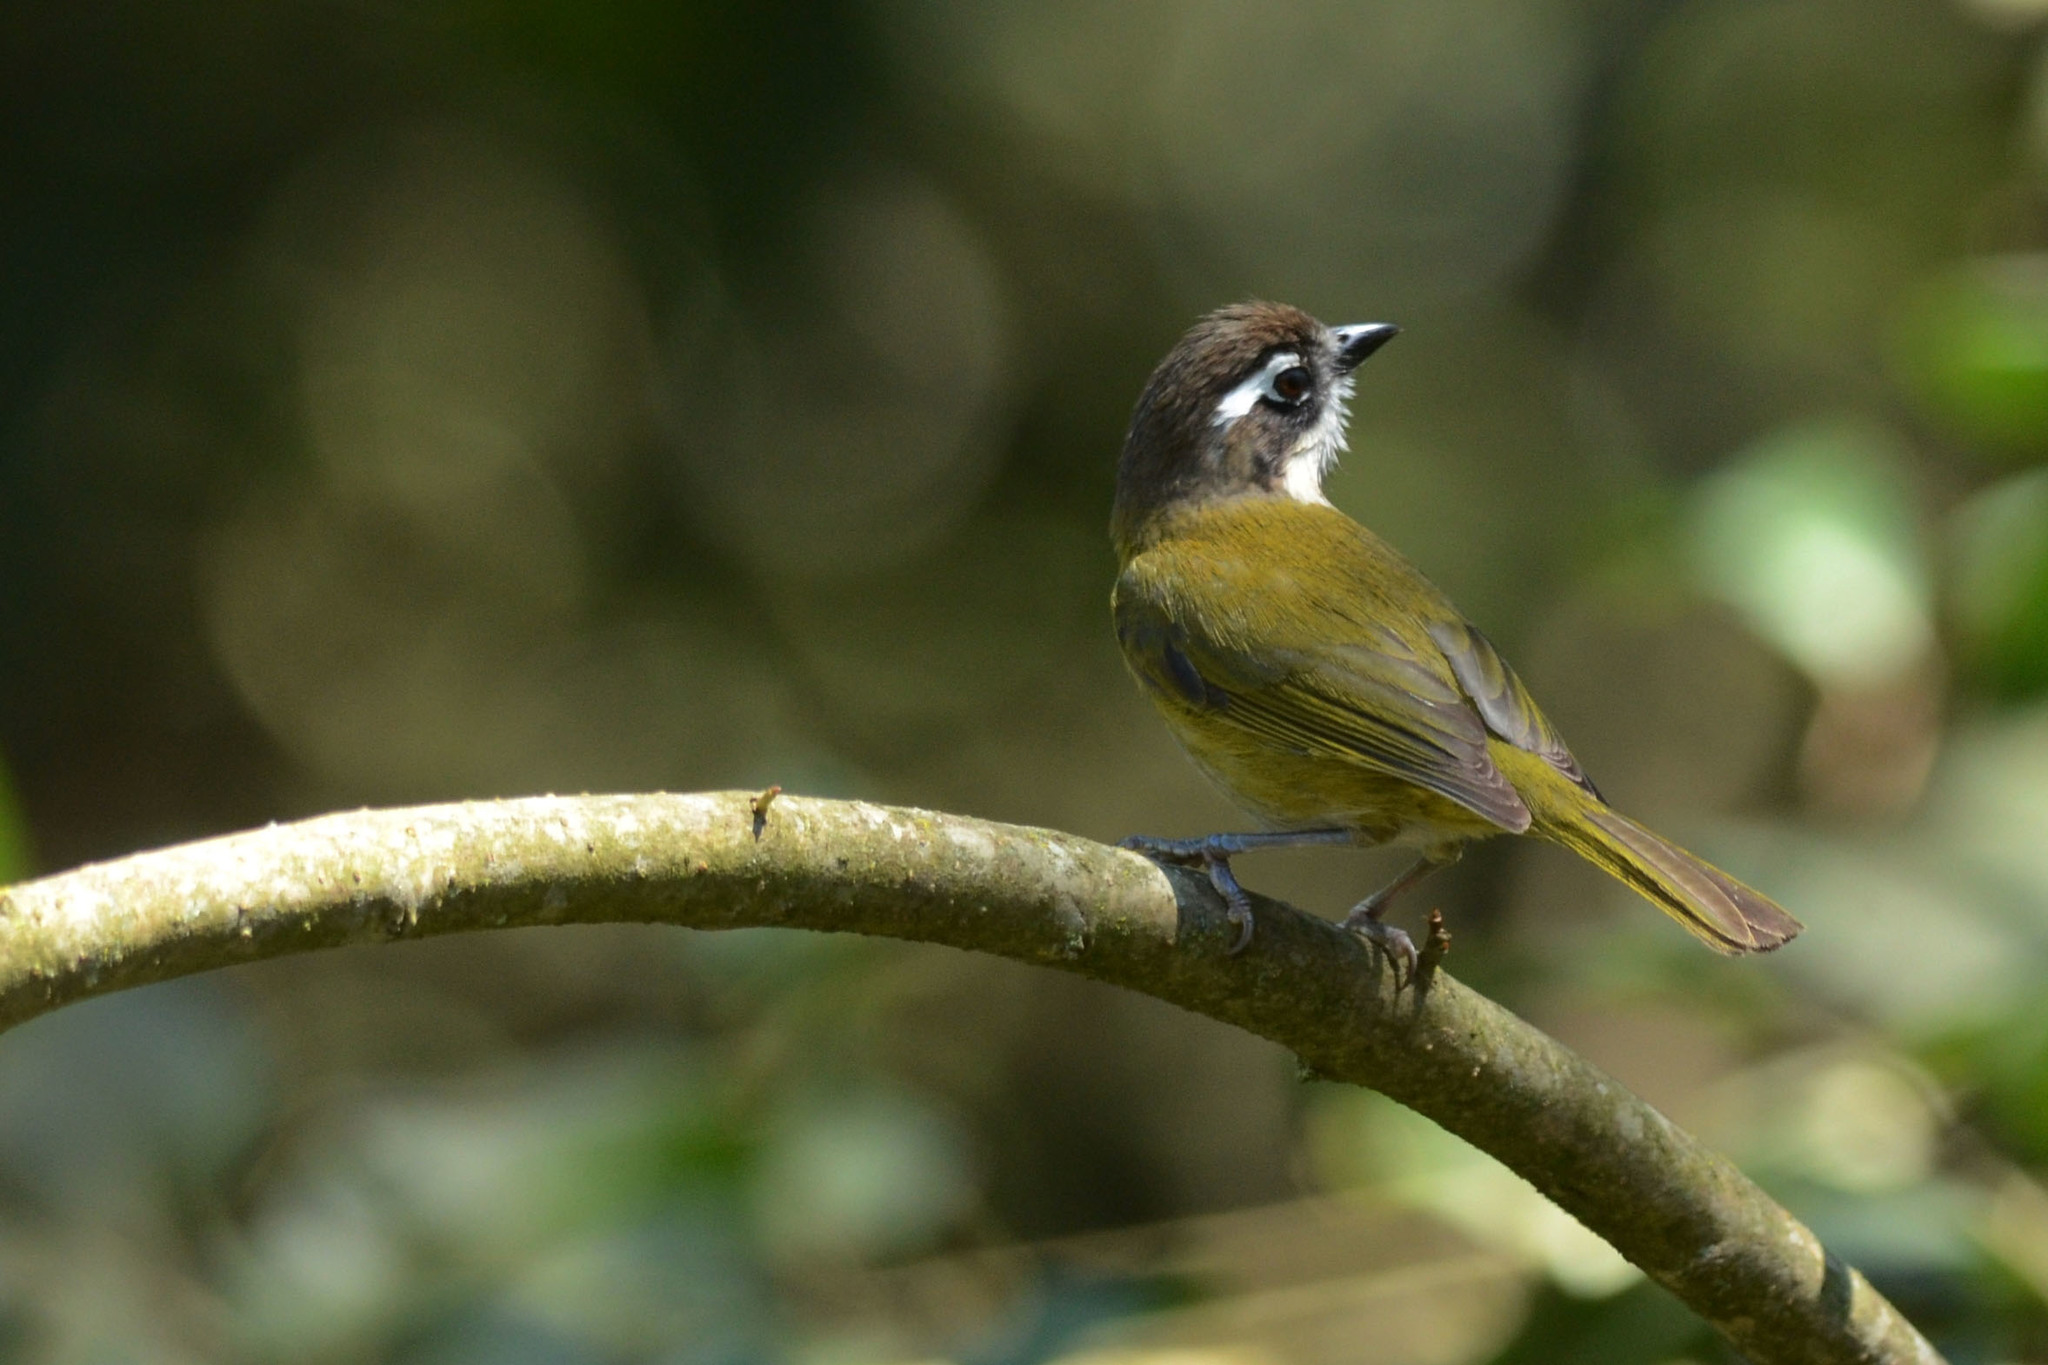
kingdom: Animalia
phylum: Chordata
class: Aves
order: Passeriformes
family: Passerellidae
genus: Chlorospingus
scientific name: Chlorospingus flavopectus
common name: Common chlorospingus
